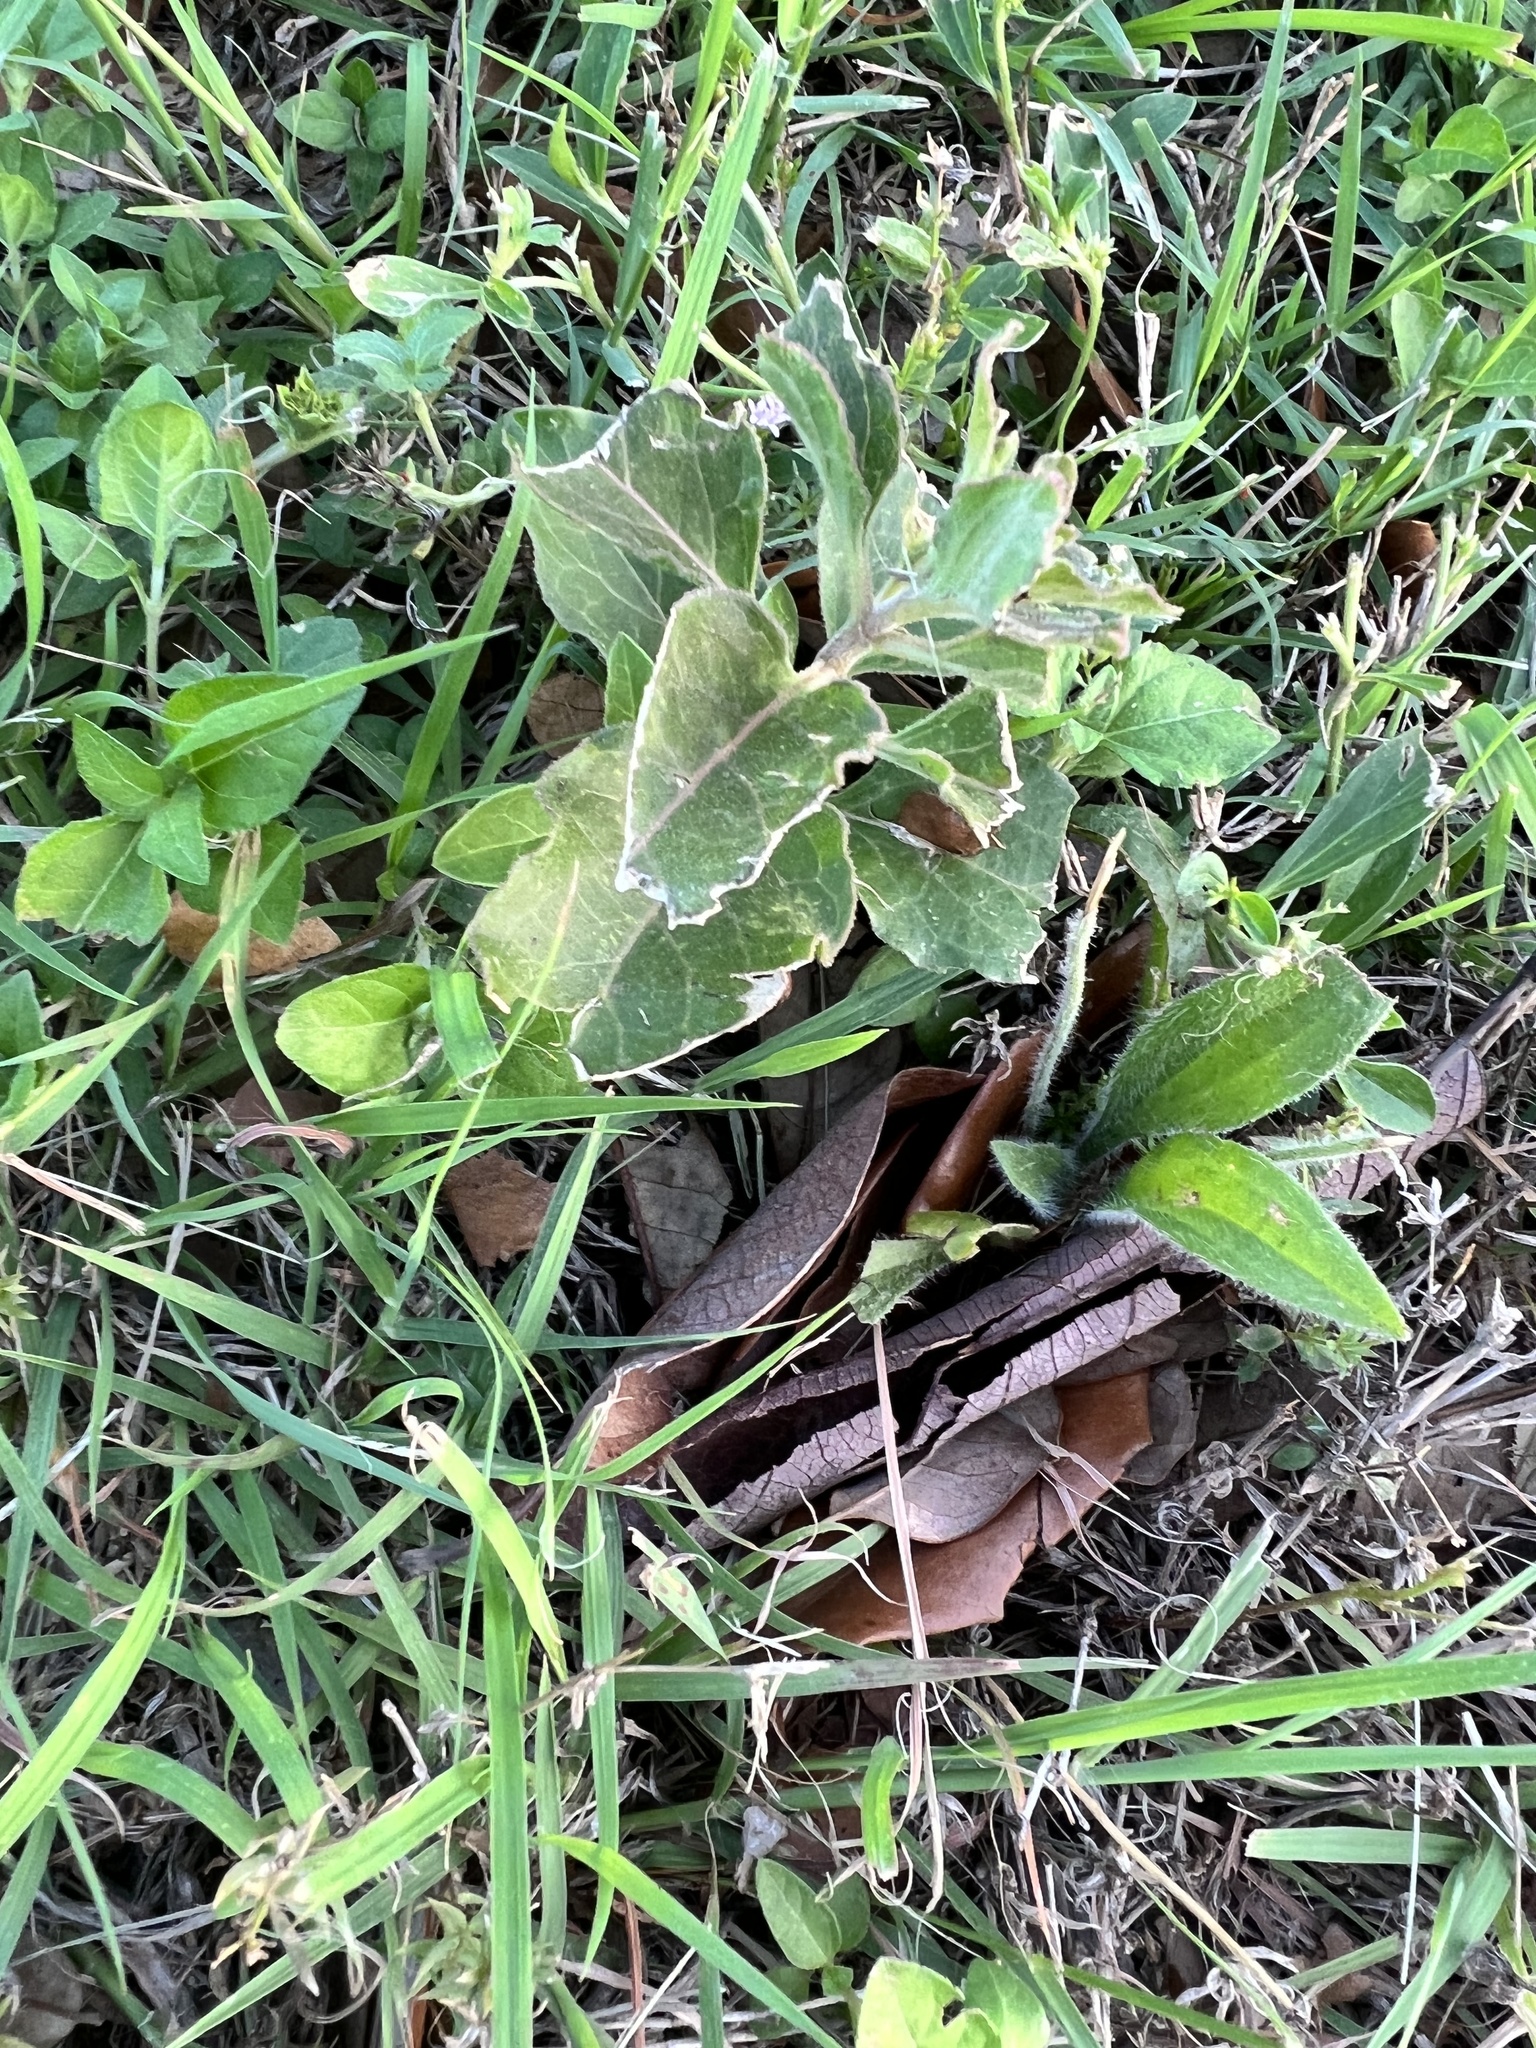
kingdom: Plantae
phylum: Tracheophyta
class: Magnoliopsida
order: Gentianales
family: Apocynaceae
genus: Asclepias
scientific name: Asclepias oenotheroides
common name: Zizotes milkweed
